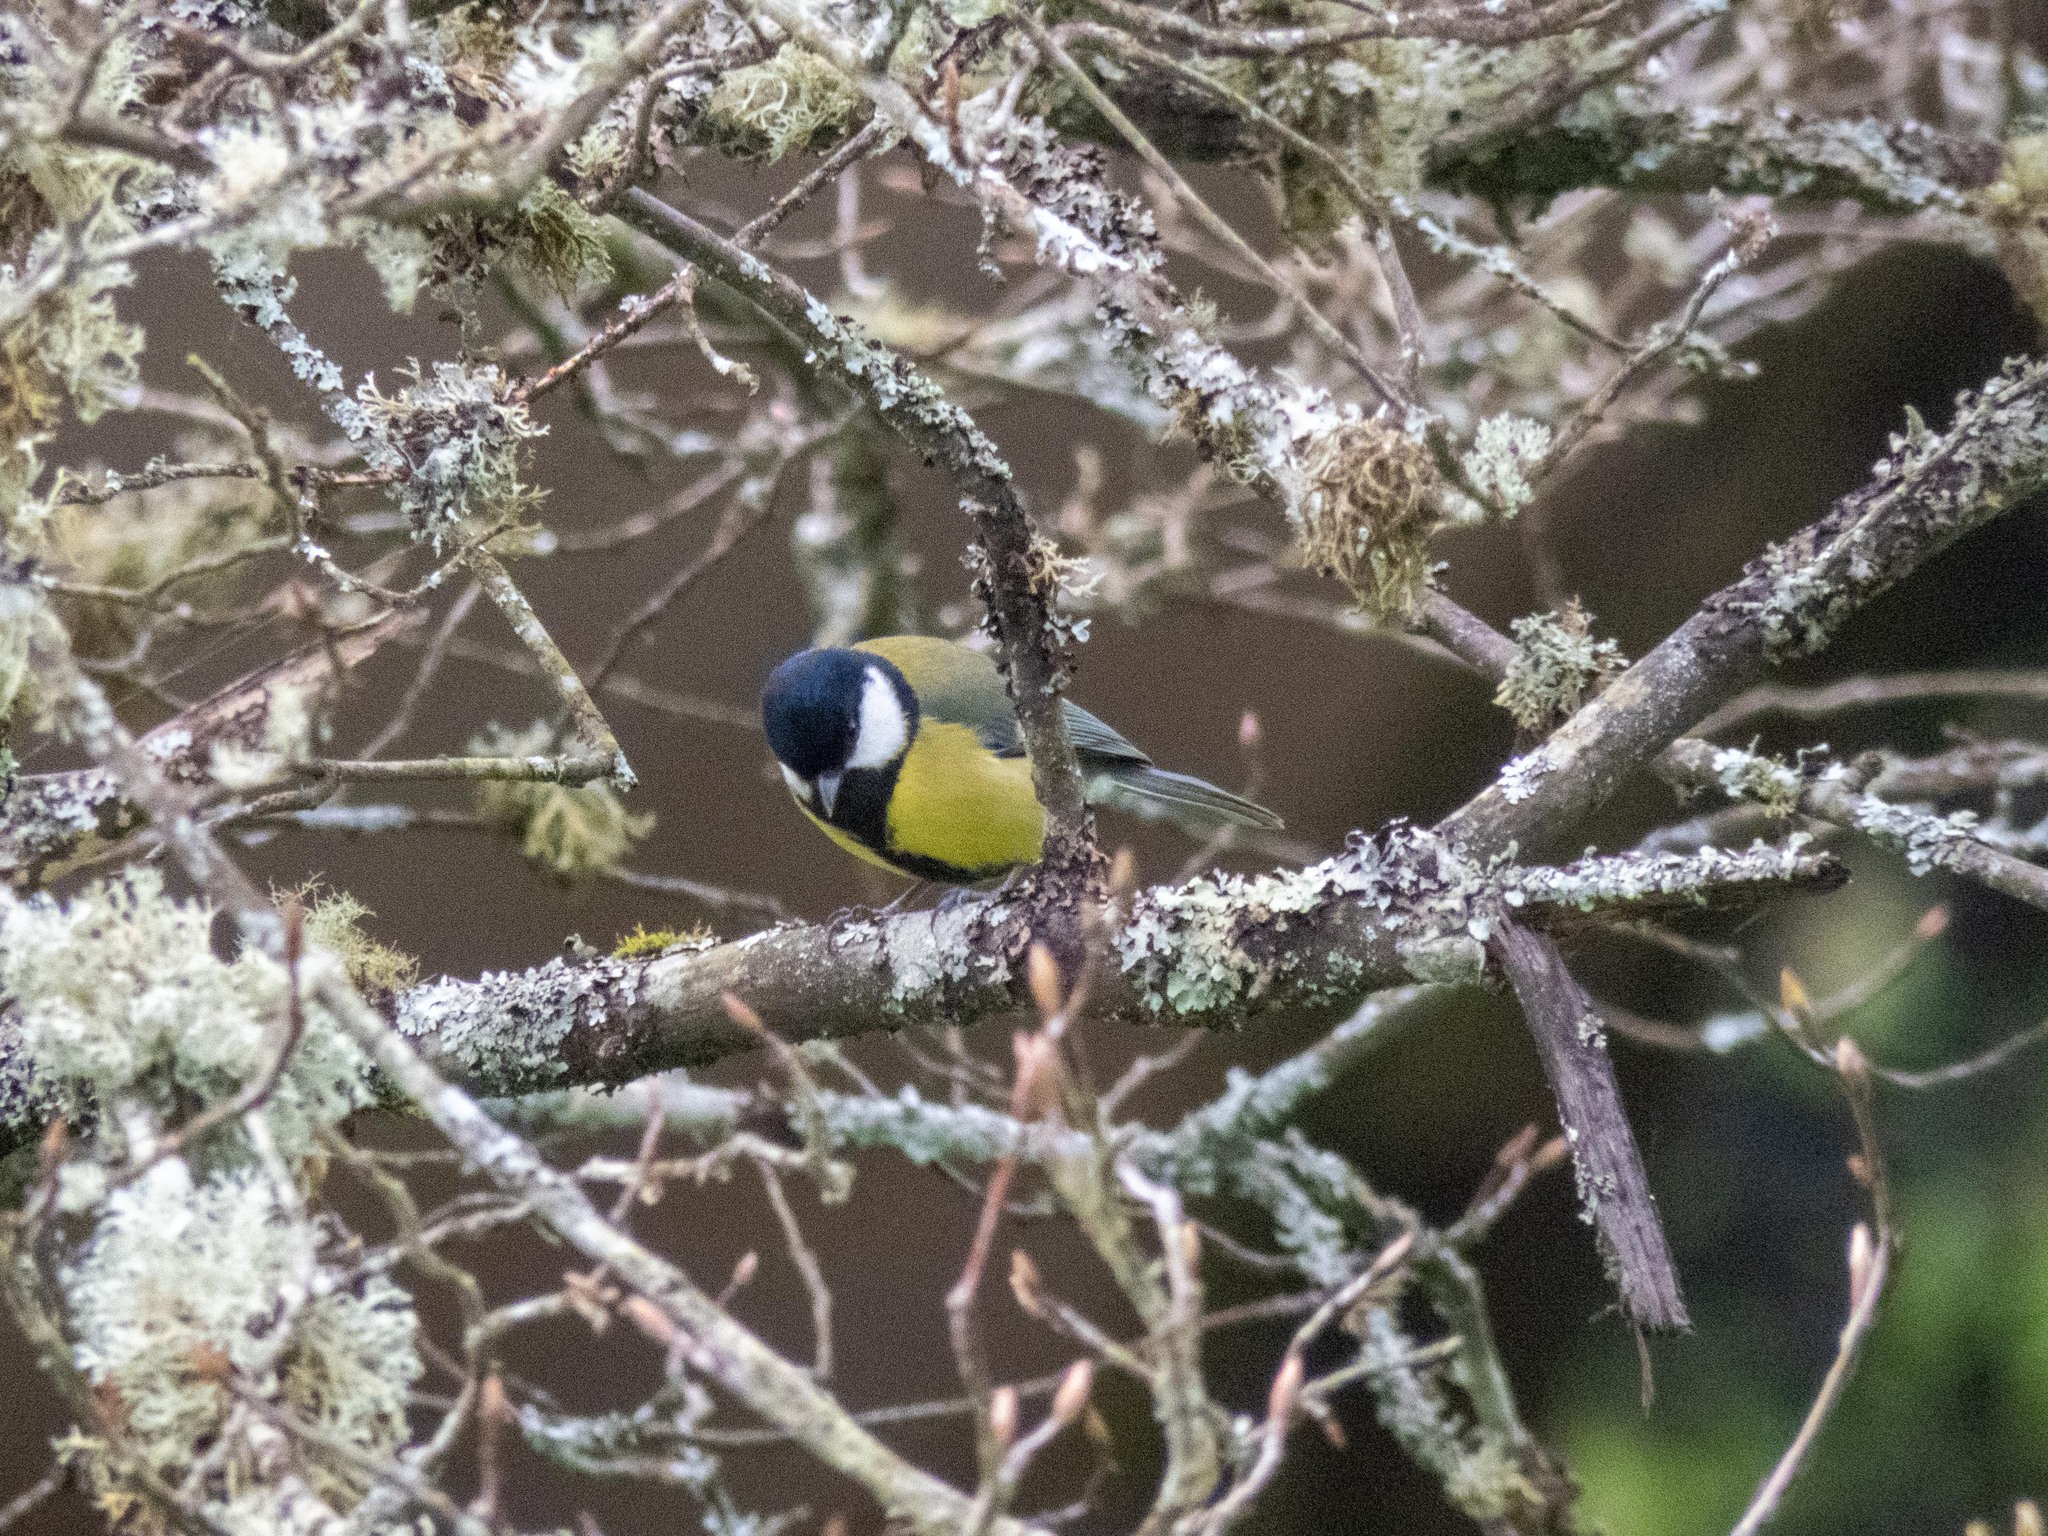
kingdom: Animalia
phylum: Chordata
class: Aves
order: Passeriformes
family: Paridae
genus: Parus
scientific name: Parus major
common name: Great tit
